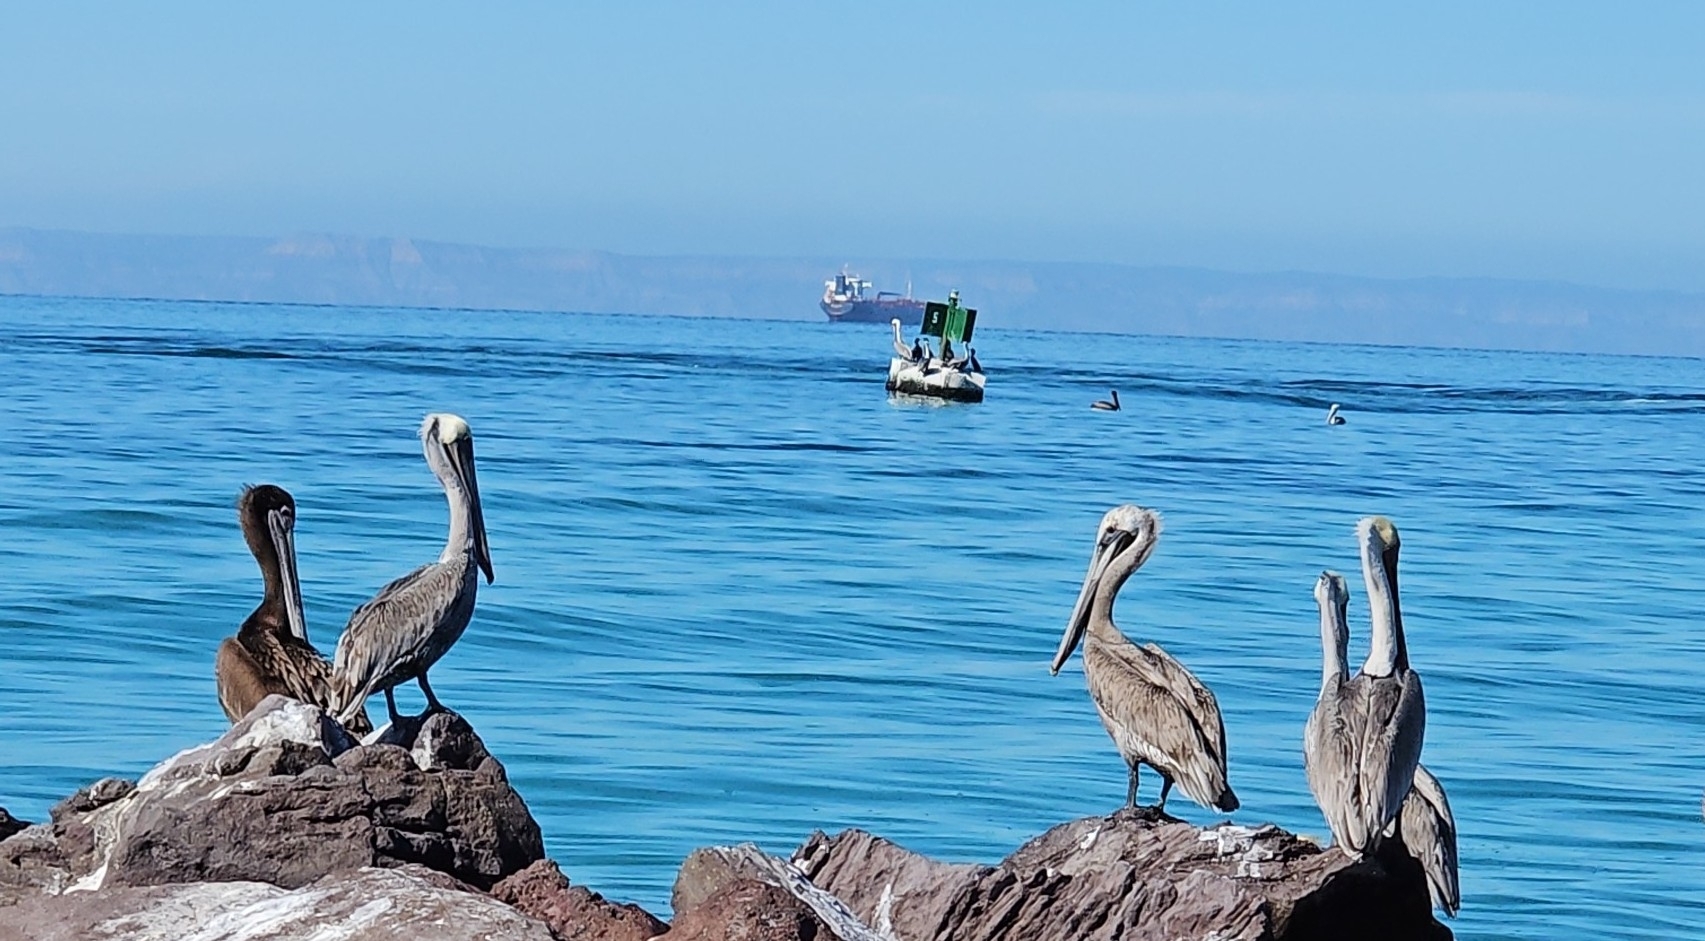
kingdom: Animalia
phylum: Chordata
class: Aves
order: Pelecaniformes
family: Pelecanidae
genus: Pelecanus
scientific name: Pelecanus occidentalis
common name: Brown pelican
